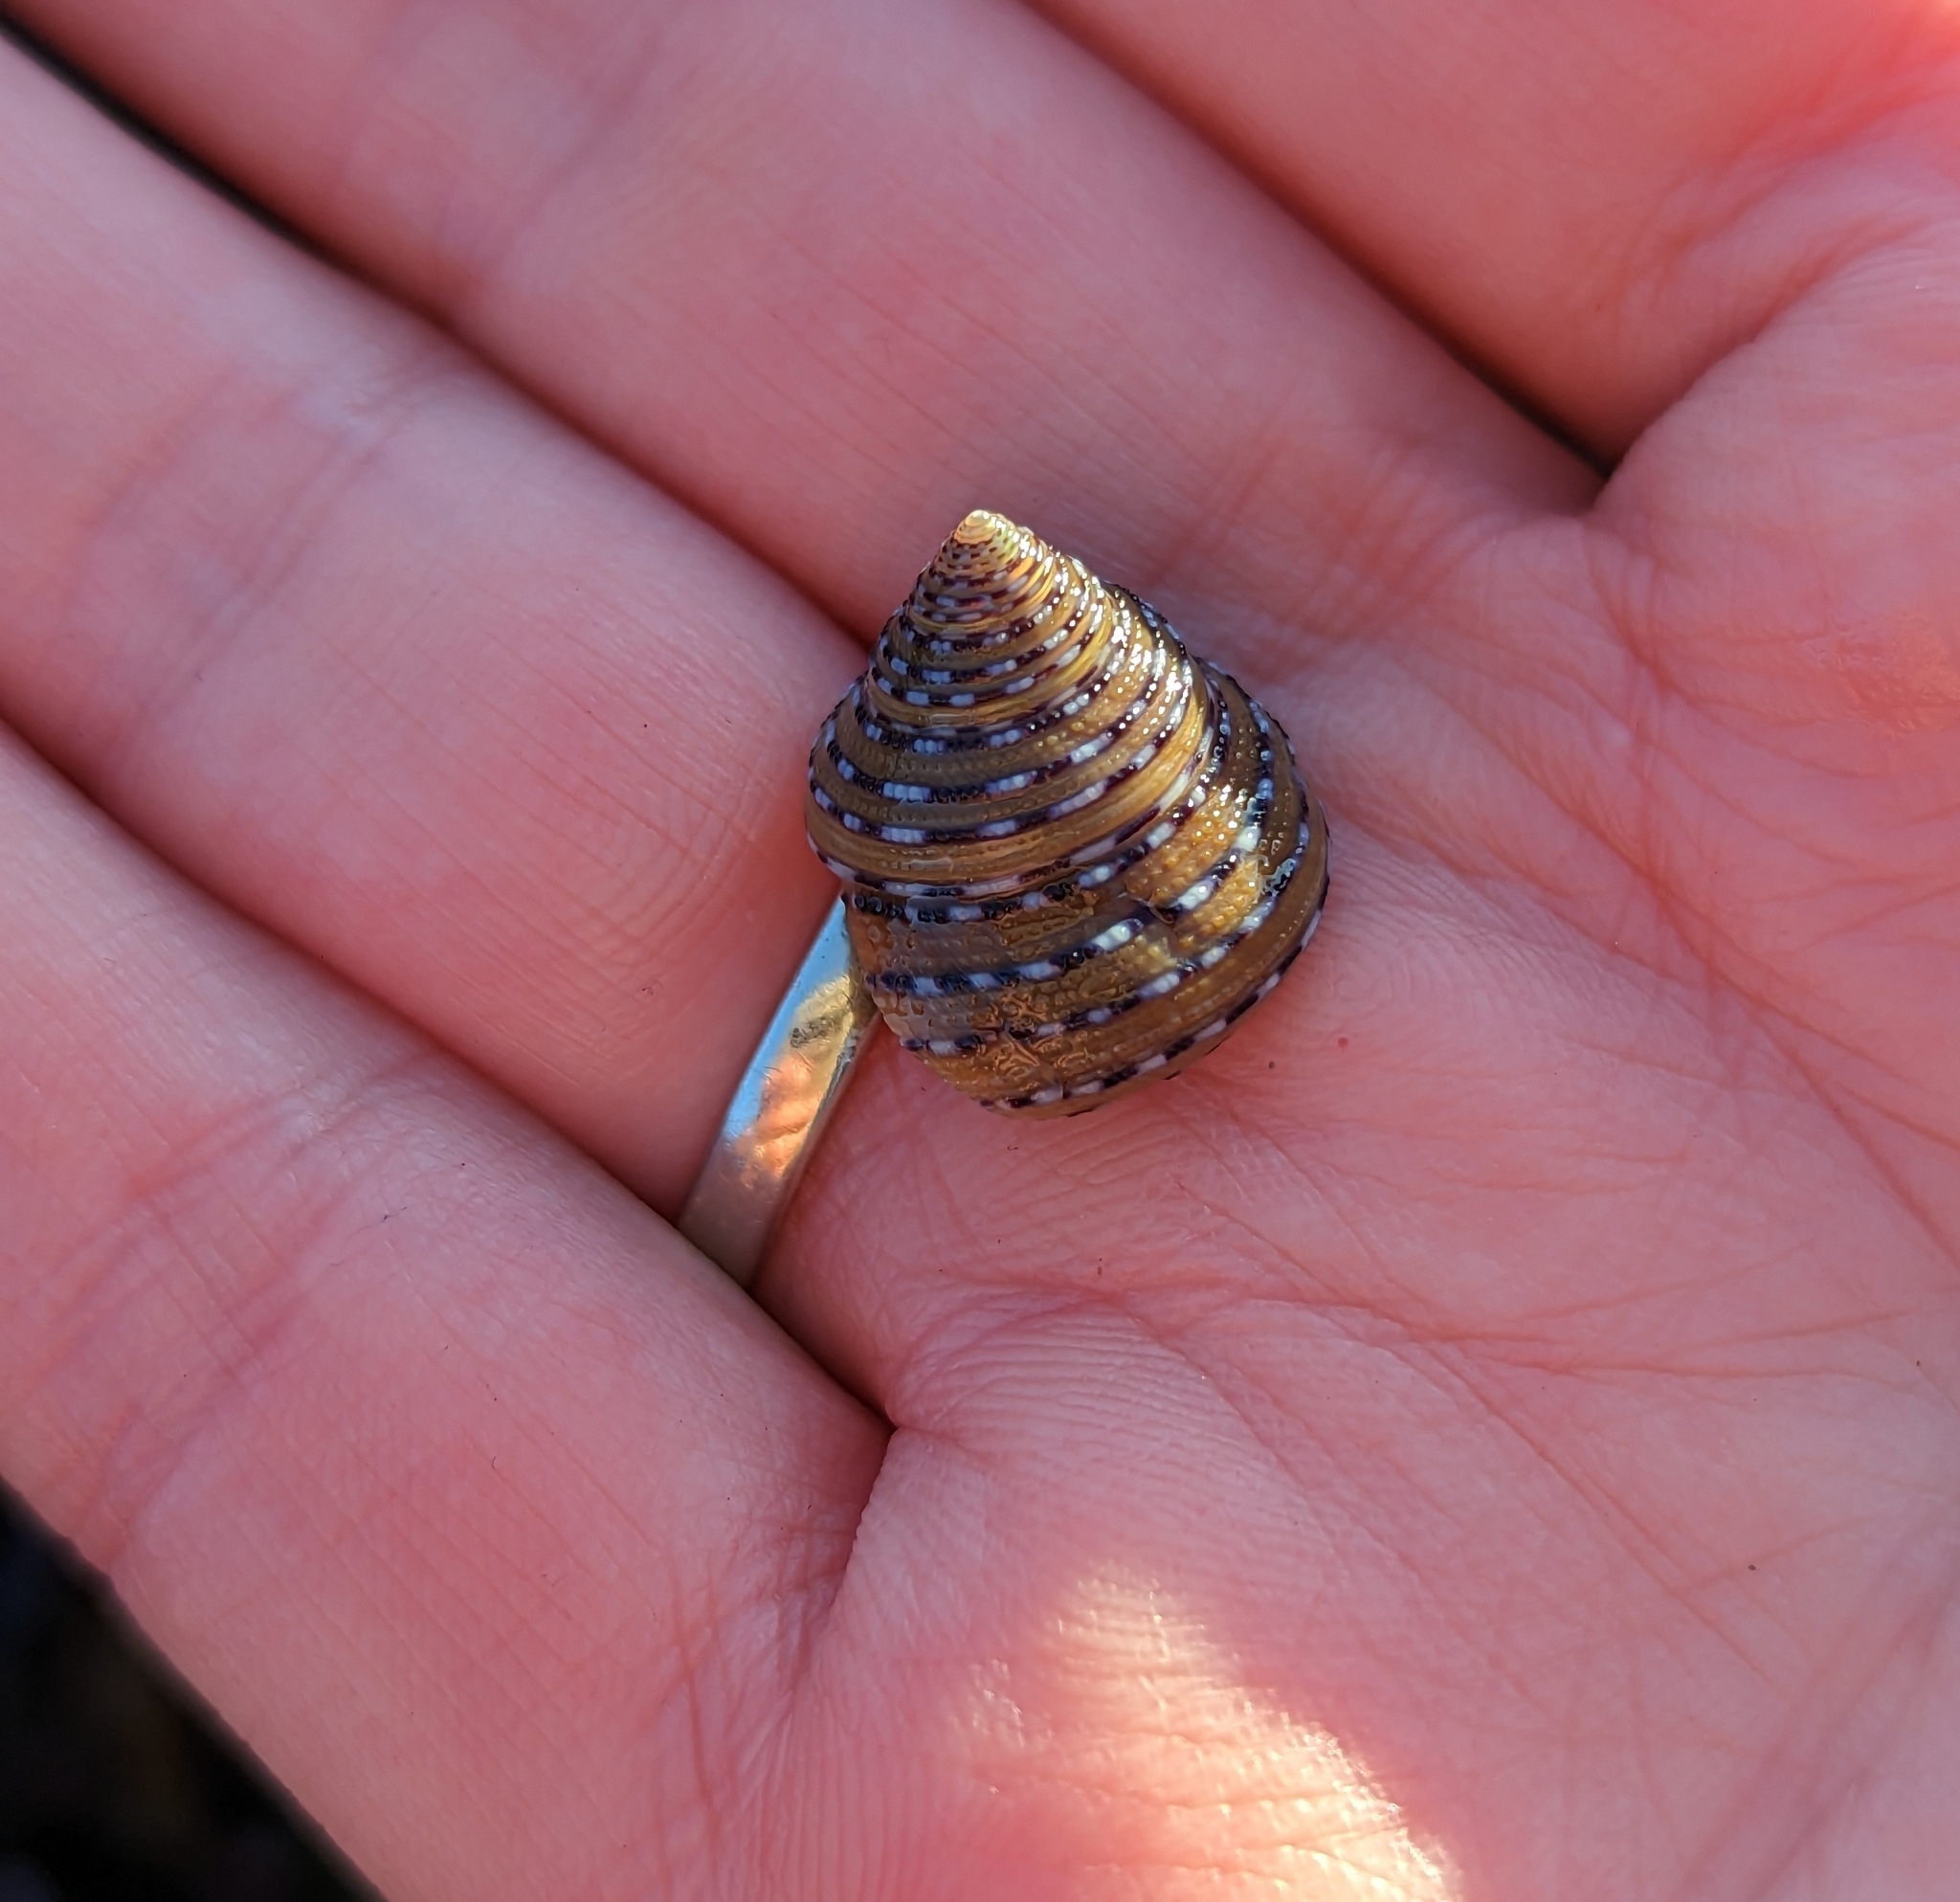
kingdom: Animalia
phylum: Mollusca
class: Gastropoda
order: Trochida
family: Calliostomatidae
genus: Calliostoma
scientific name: Calliostoma tricolor
